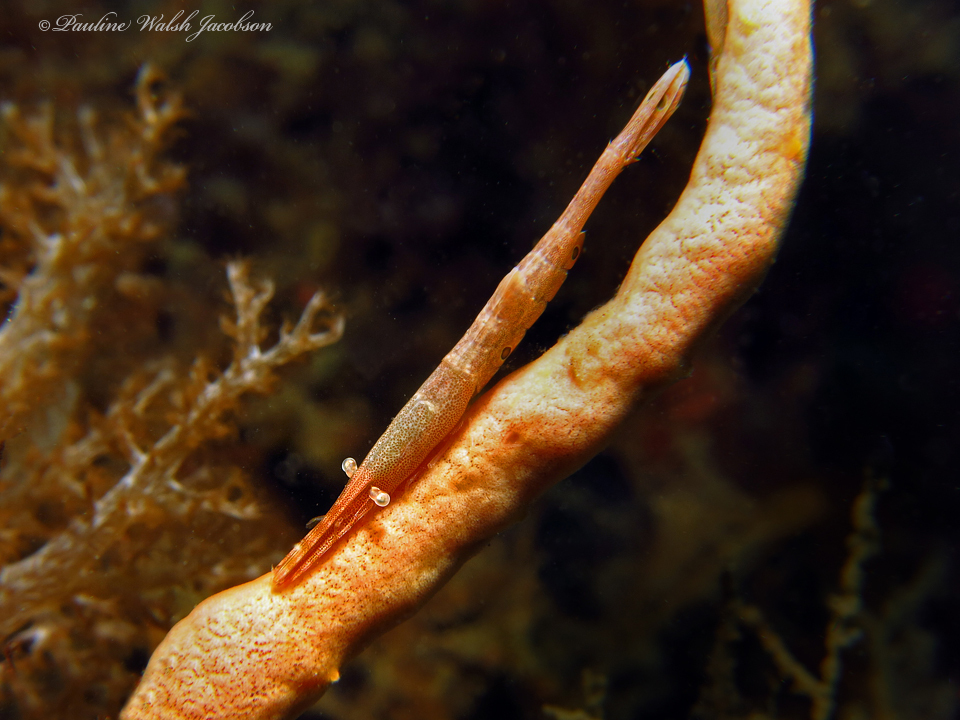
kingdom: Animalia
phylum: Arthropoda
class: Malacostraca
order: Decapoda
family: Hippolytidae
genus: Tozeuma
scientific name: Tozeuma lanceolatum
